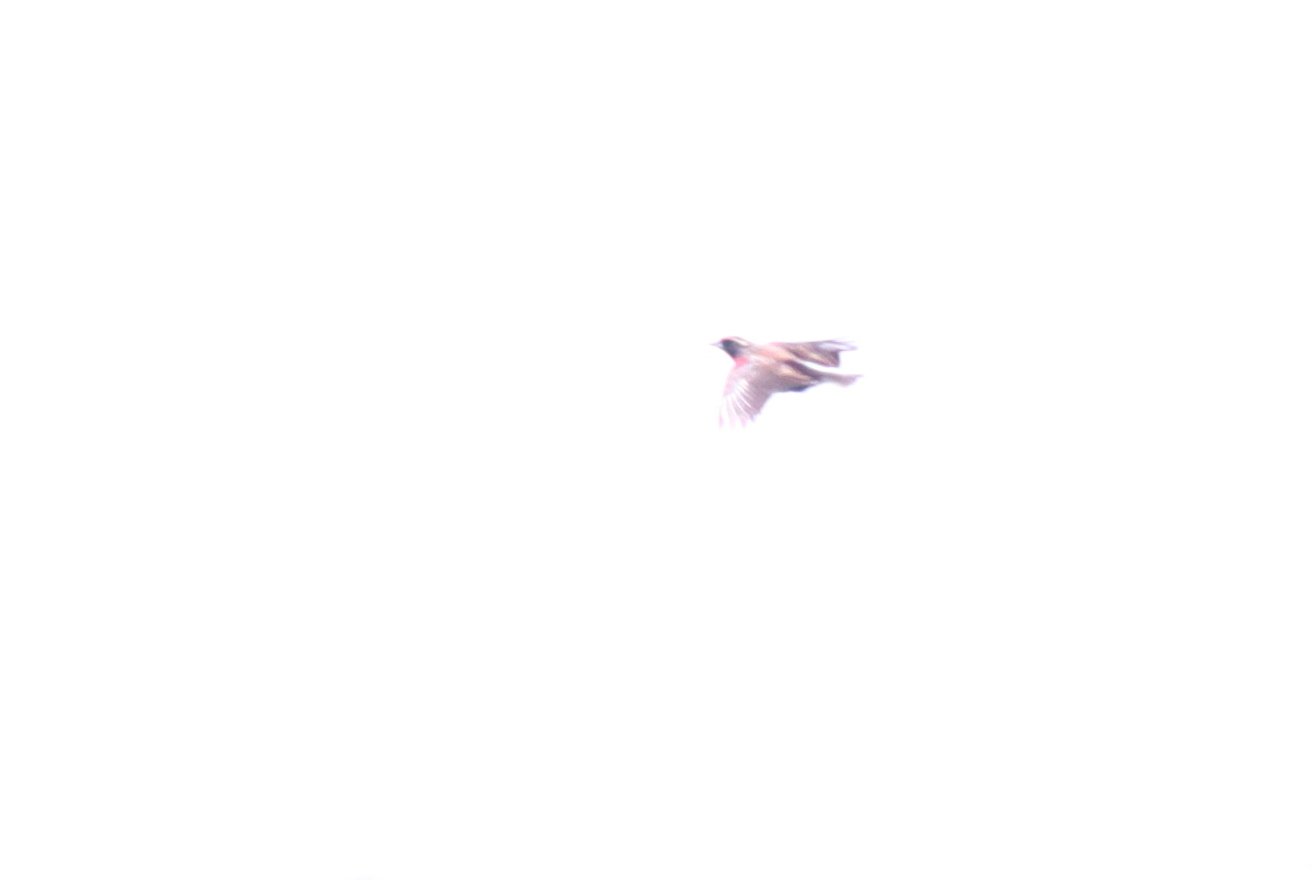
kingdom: Animalia
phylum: Chordata
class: Aves
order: Passeriformes
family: Icteridae
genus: Sturnella
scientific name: Sturnella superciliaris
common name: White-browed blackbird
